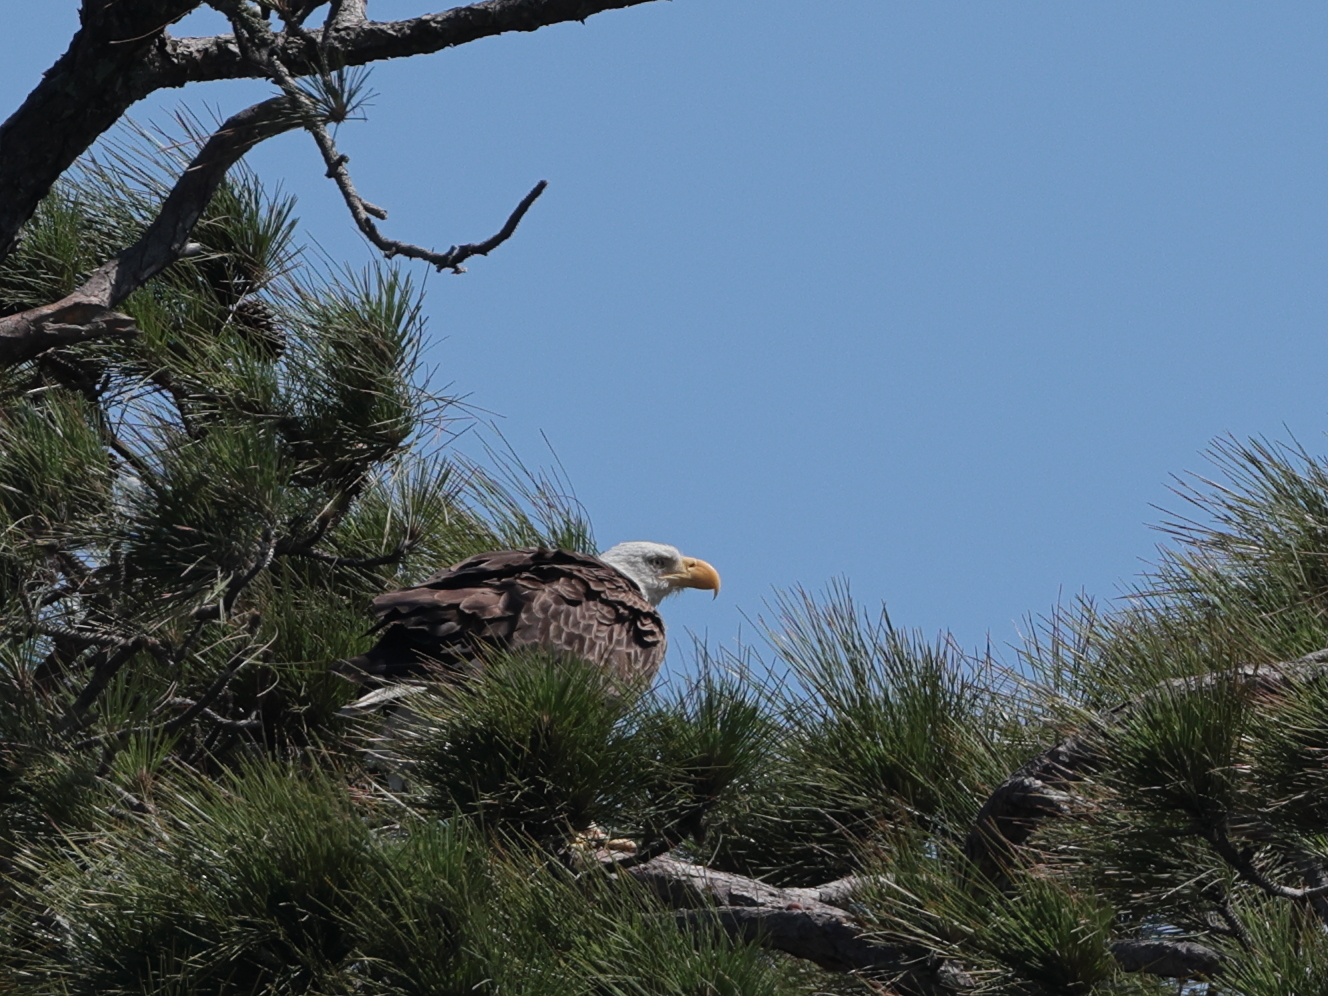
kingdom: Animalia
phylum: Chordata
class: Aves
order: Accipitriformes
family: Accipitridae
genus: Haliaeetus
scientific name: Haliaeetus leucocephalus
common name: Bald eagle
